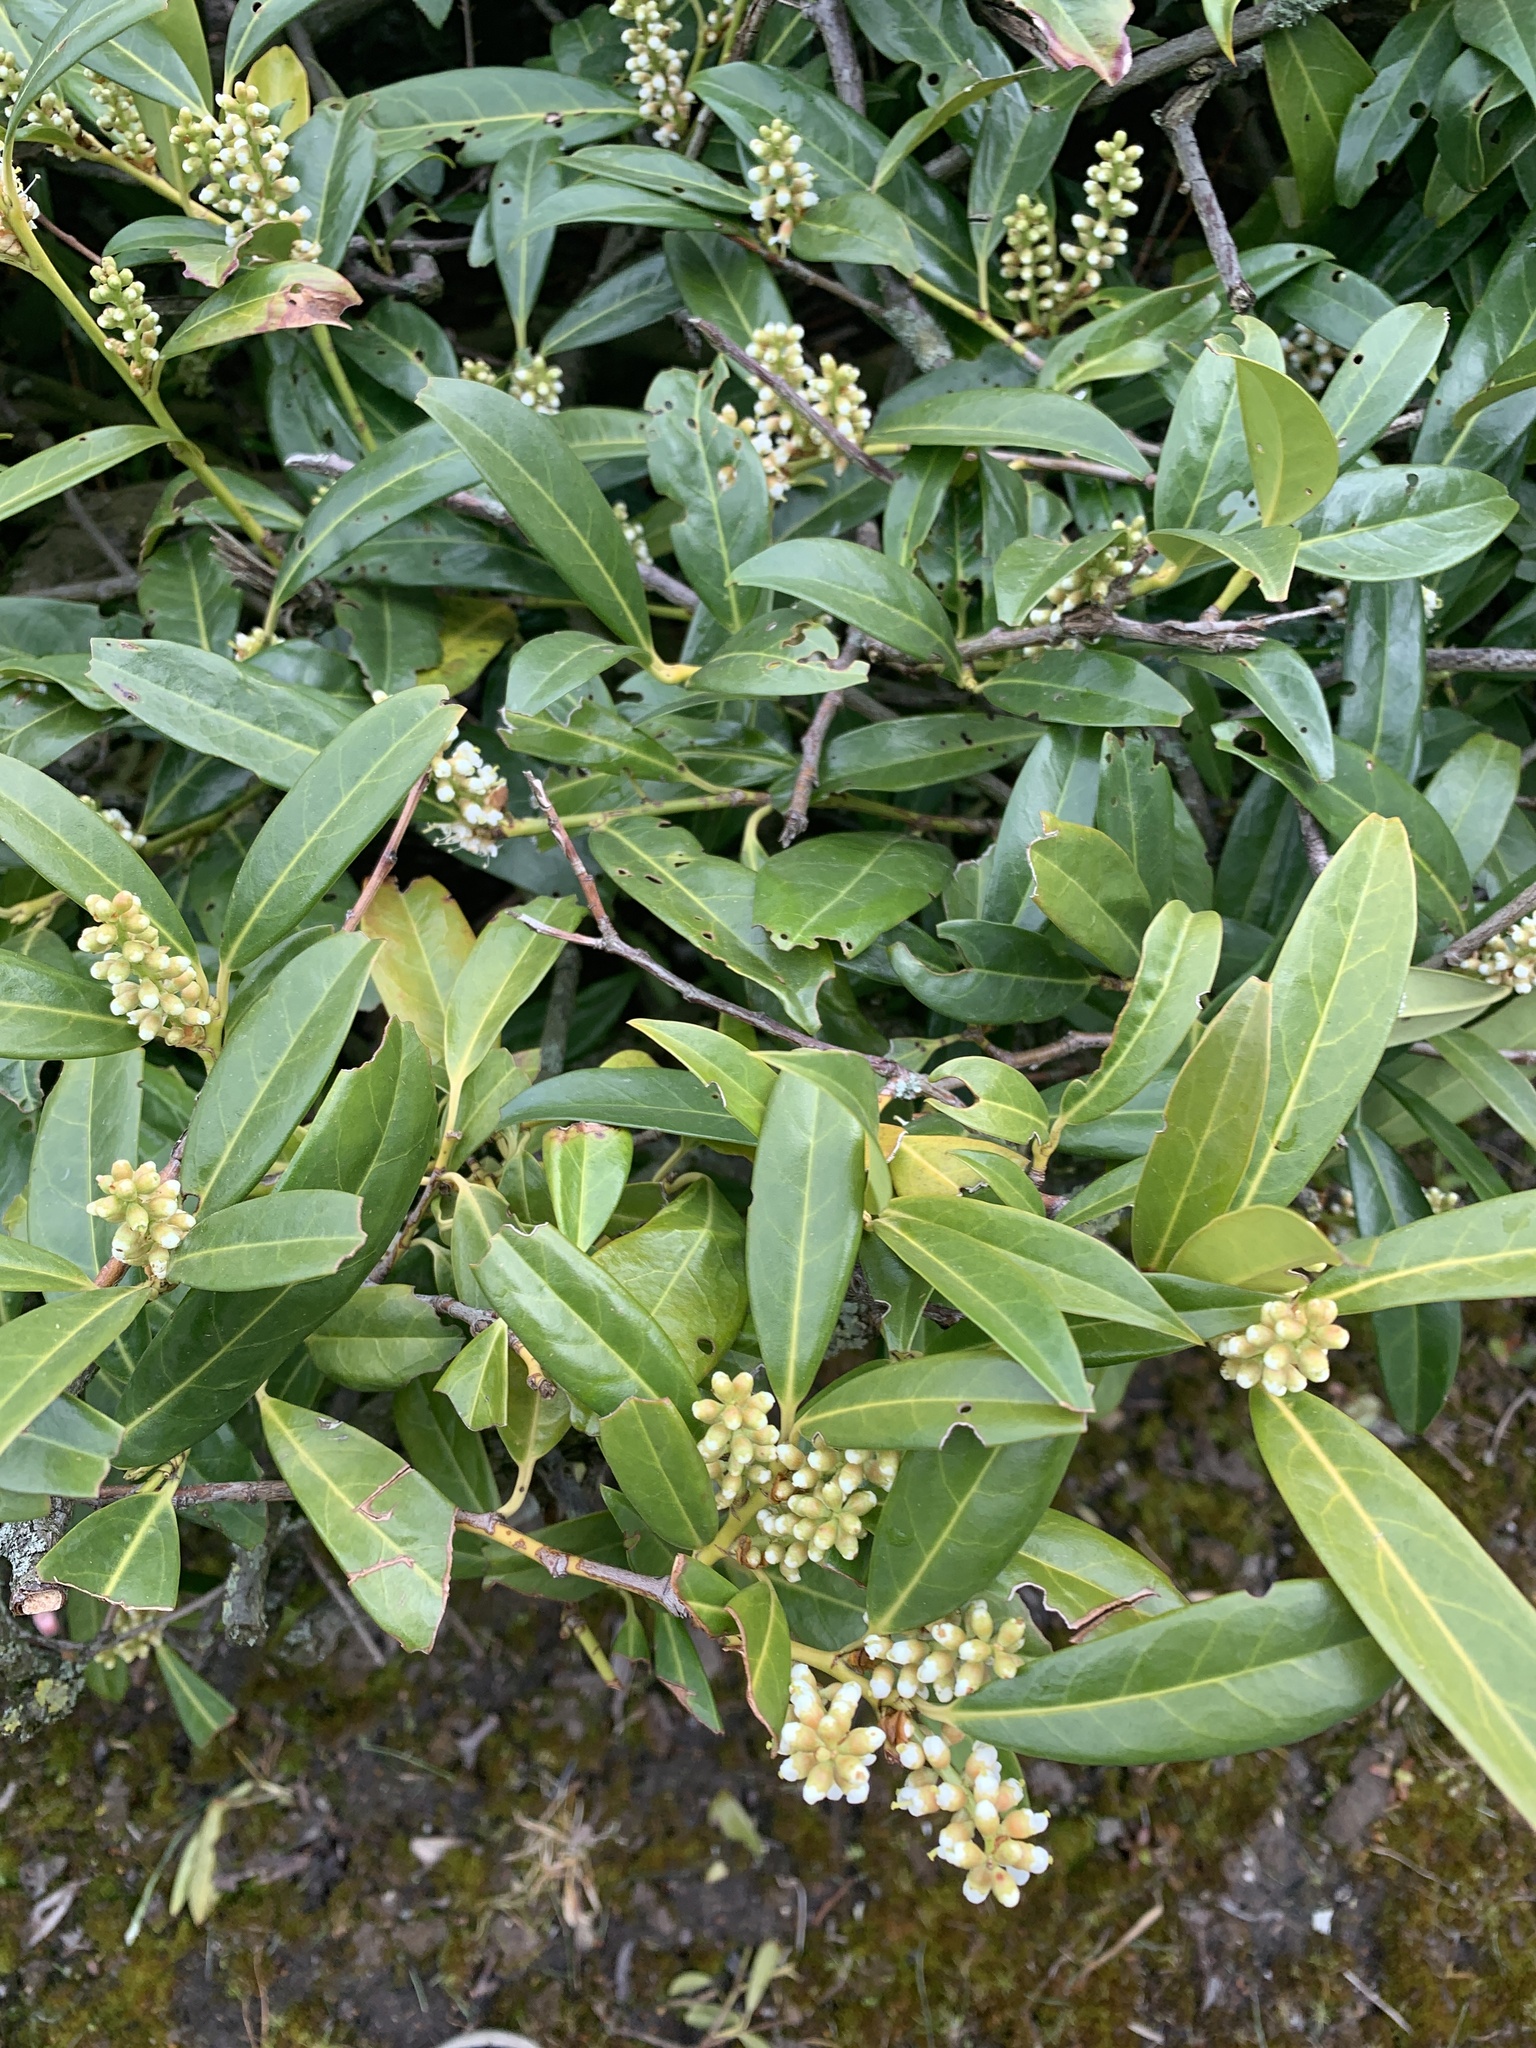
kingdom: Plantae
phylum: Tracheophyta
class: Magnoliopsida
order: Rosales
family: Rosaceae
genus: Prunus
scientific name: Prunus laurocerasus
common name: Cherry laurel
